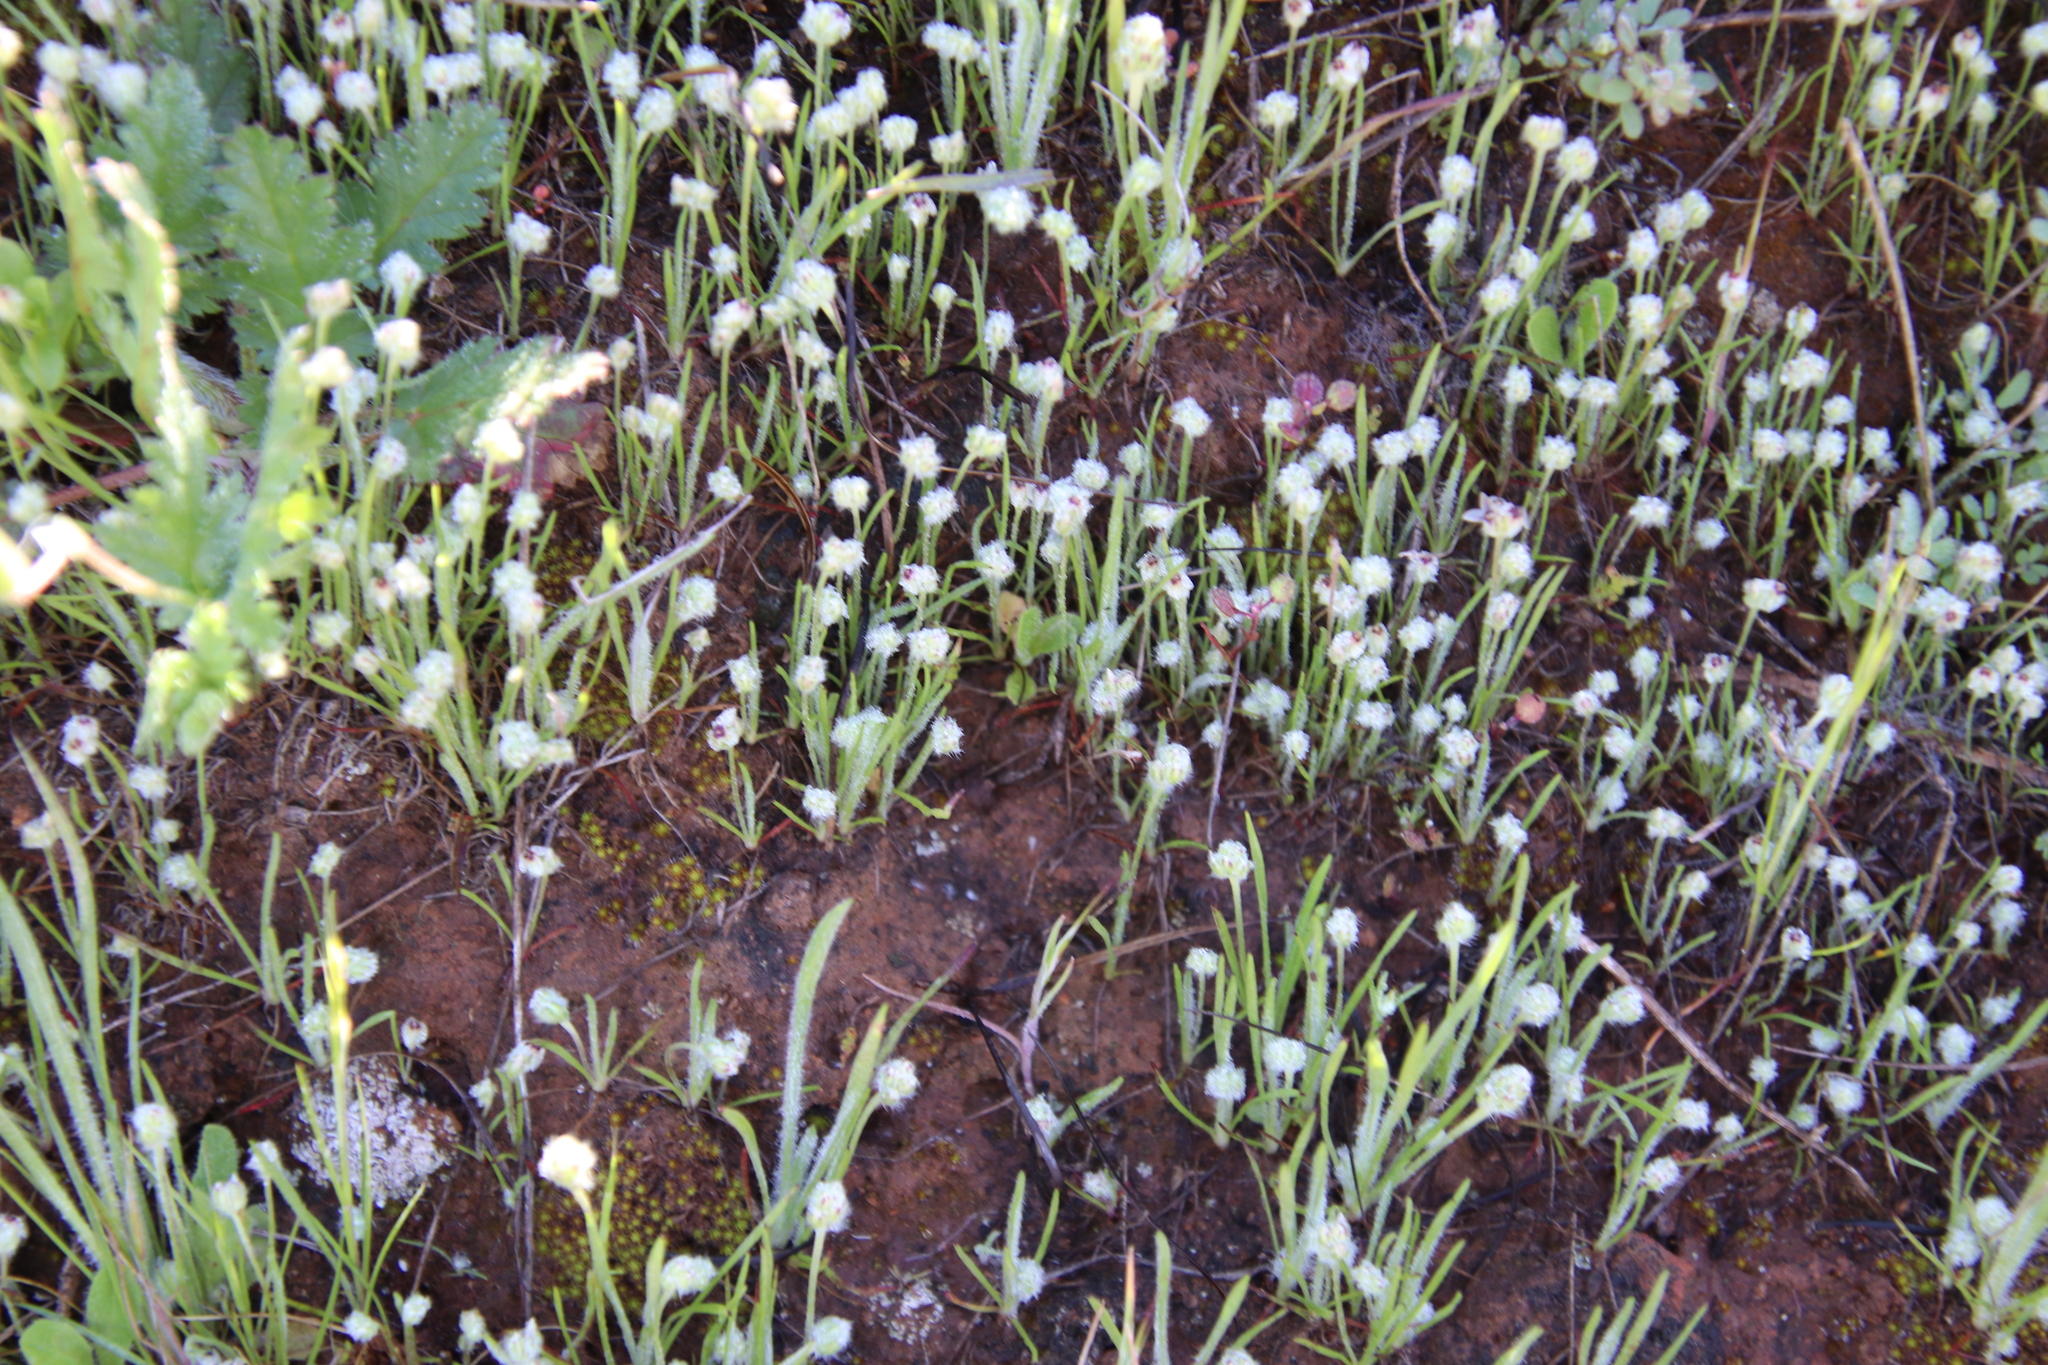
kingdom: Plantae
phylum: Tracheophyta
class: Magnoliopsida
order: Lamiales
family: Plantaginaceae
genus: Plantago
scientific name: Plantago erecta
